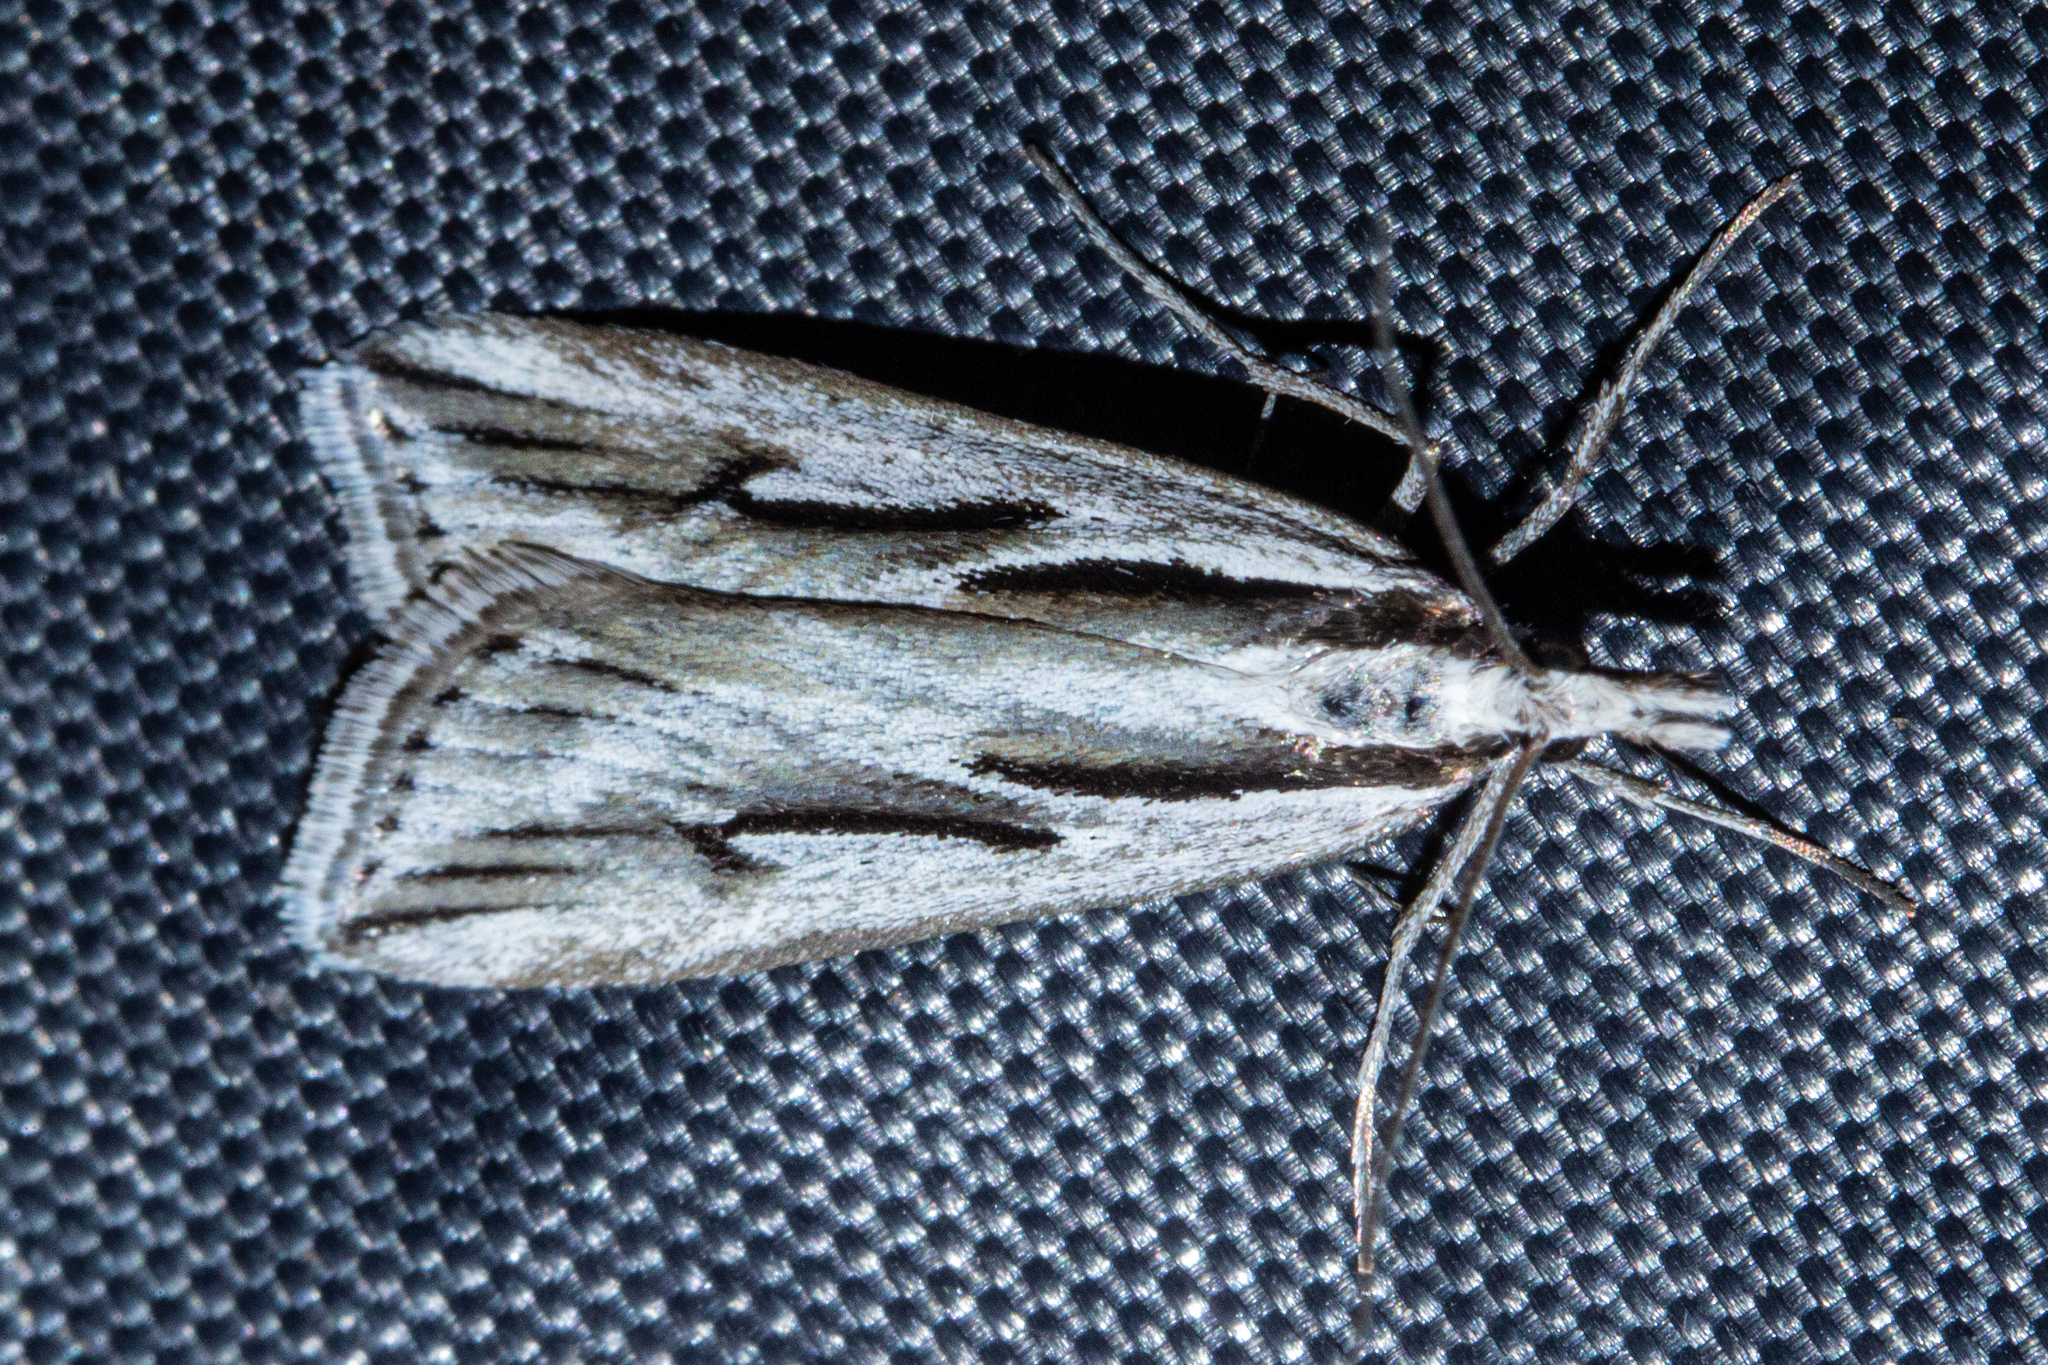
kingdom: Animalia
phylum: Arthropoda
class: Insecta
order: Lepidoptera
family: Crambidae
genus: Scoparia
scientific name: Scoparia panopla
